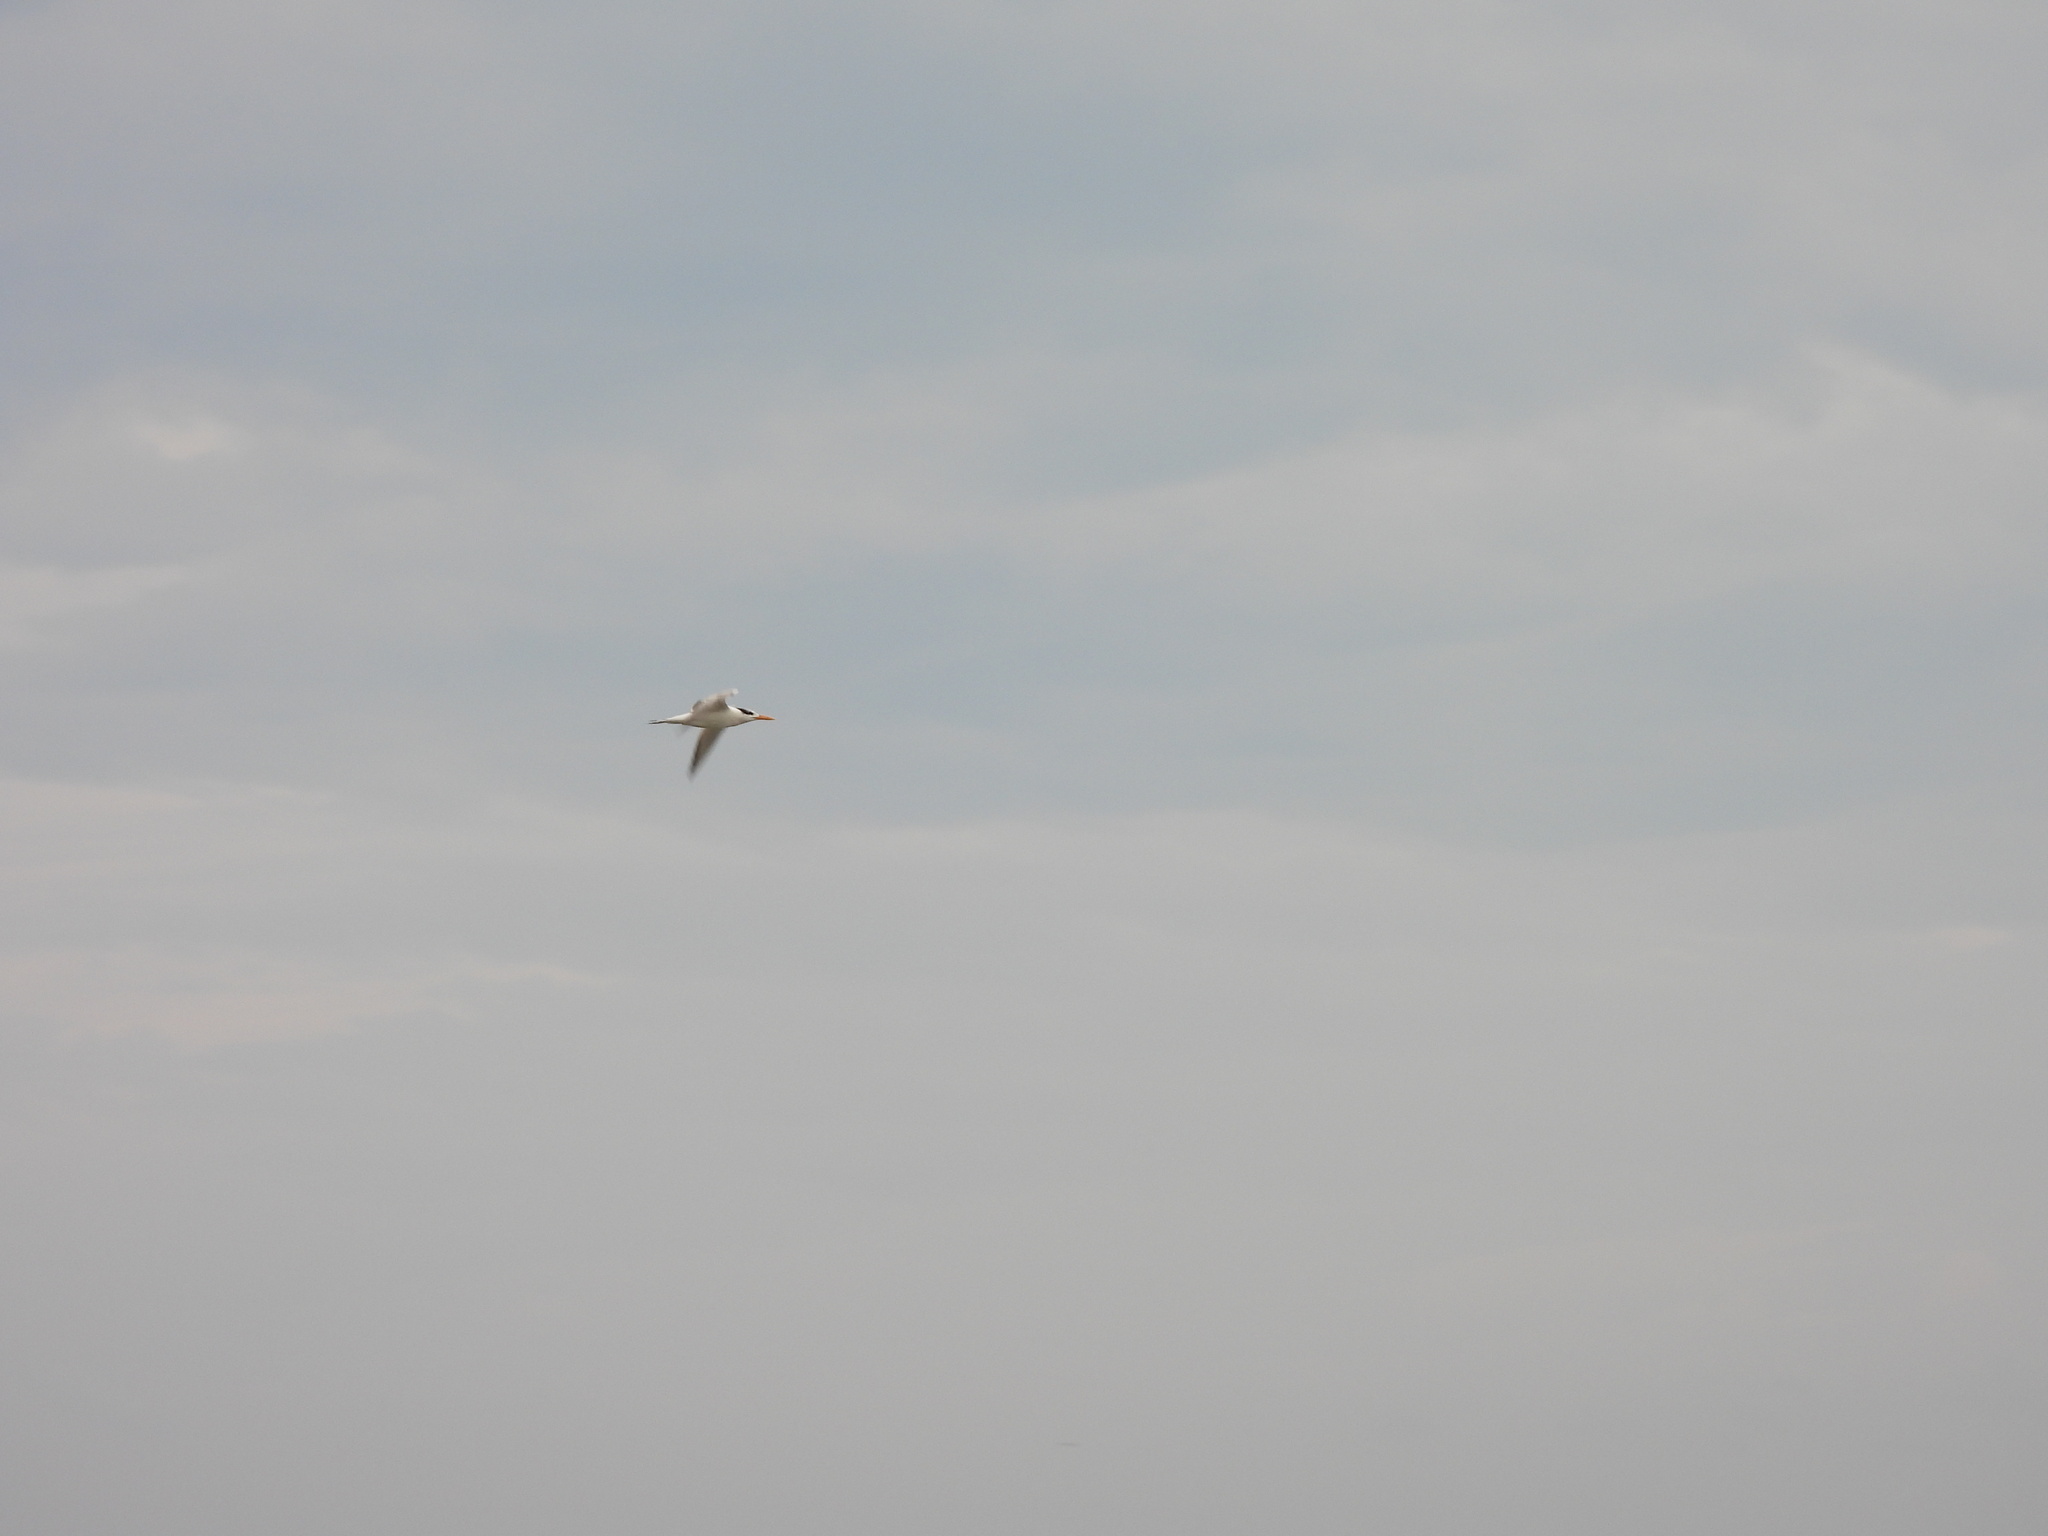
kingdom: Animalia
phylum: Chordata
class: Aves
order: Charadriiformes
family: Laridae
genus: Thalasseus
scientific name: Thalasseus maximus
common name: Royal tern
